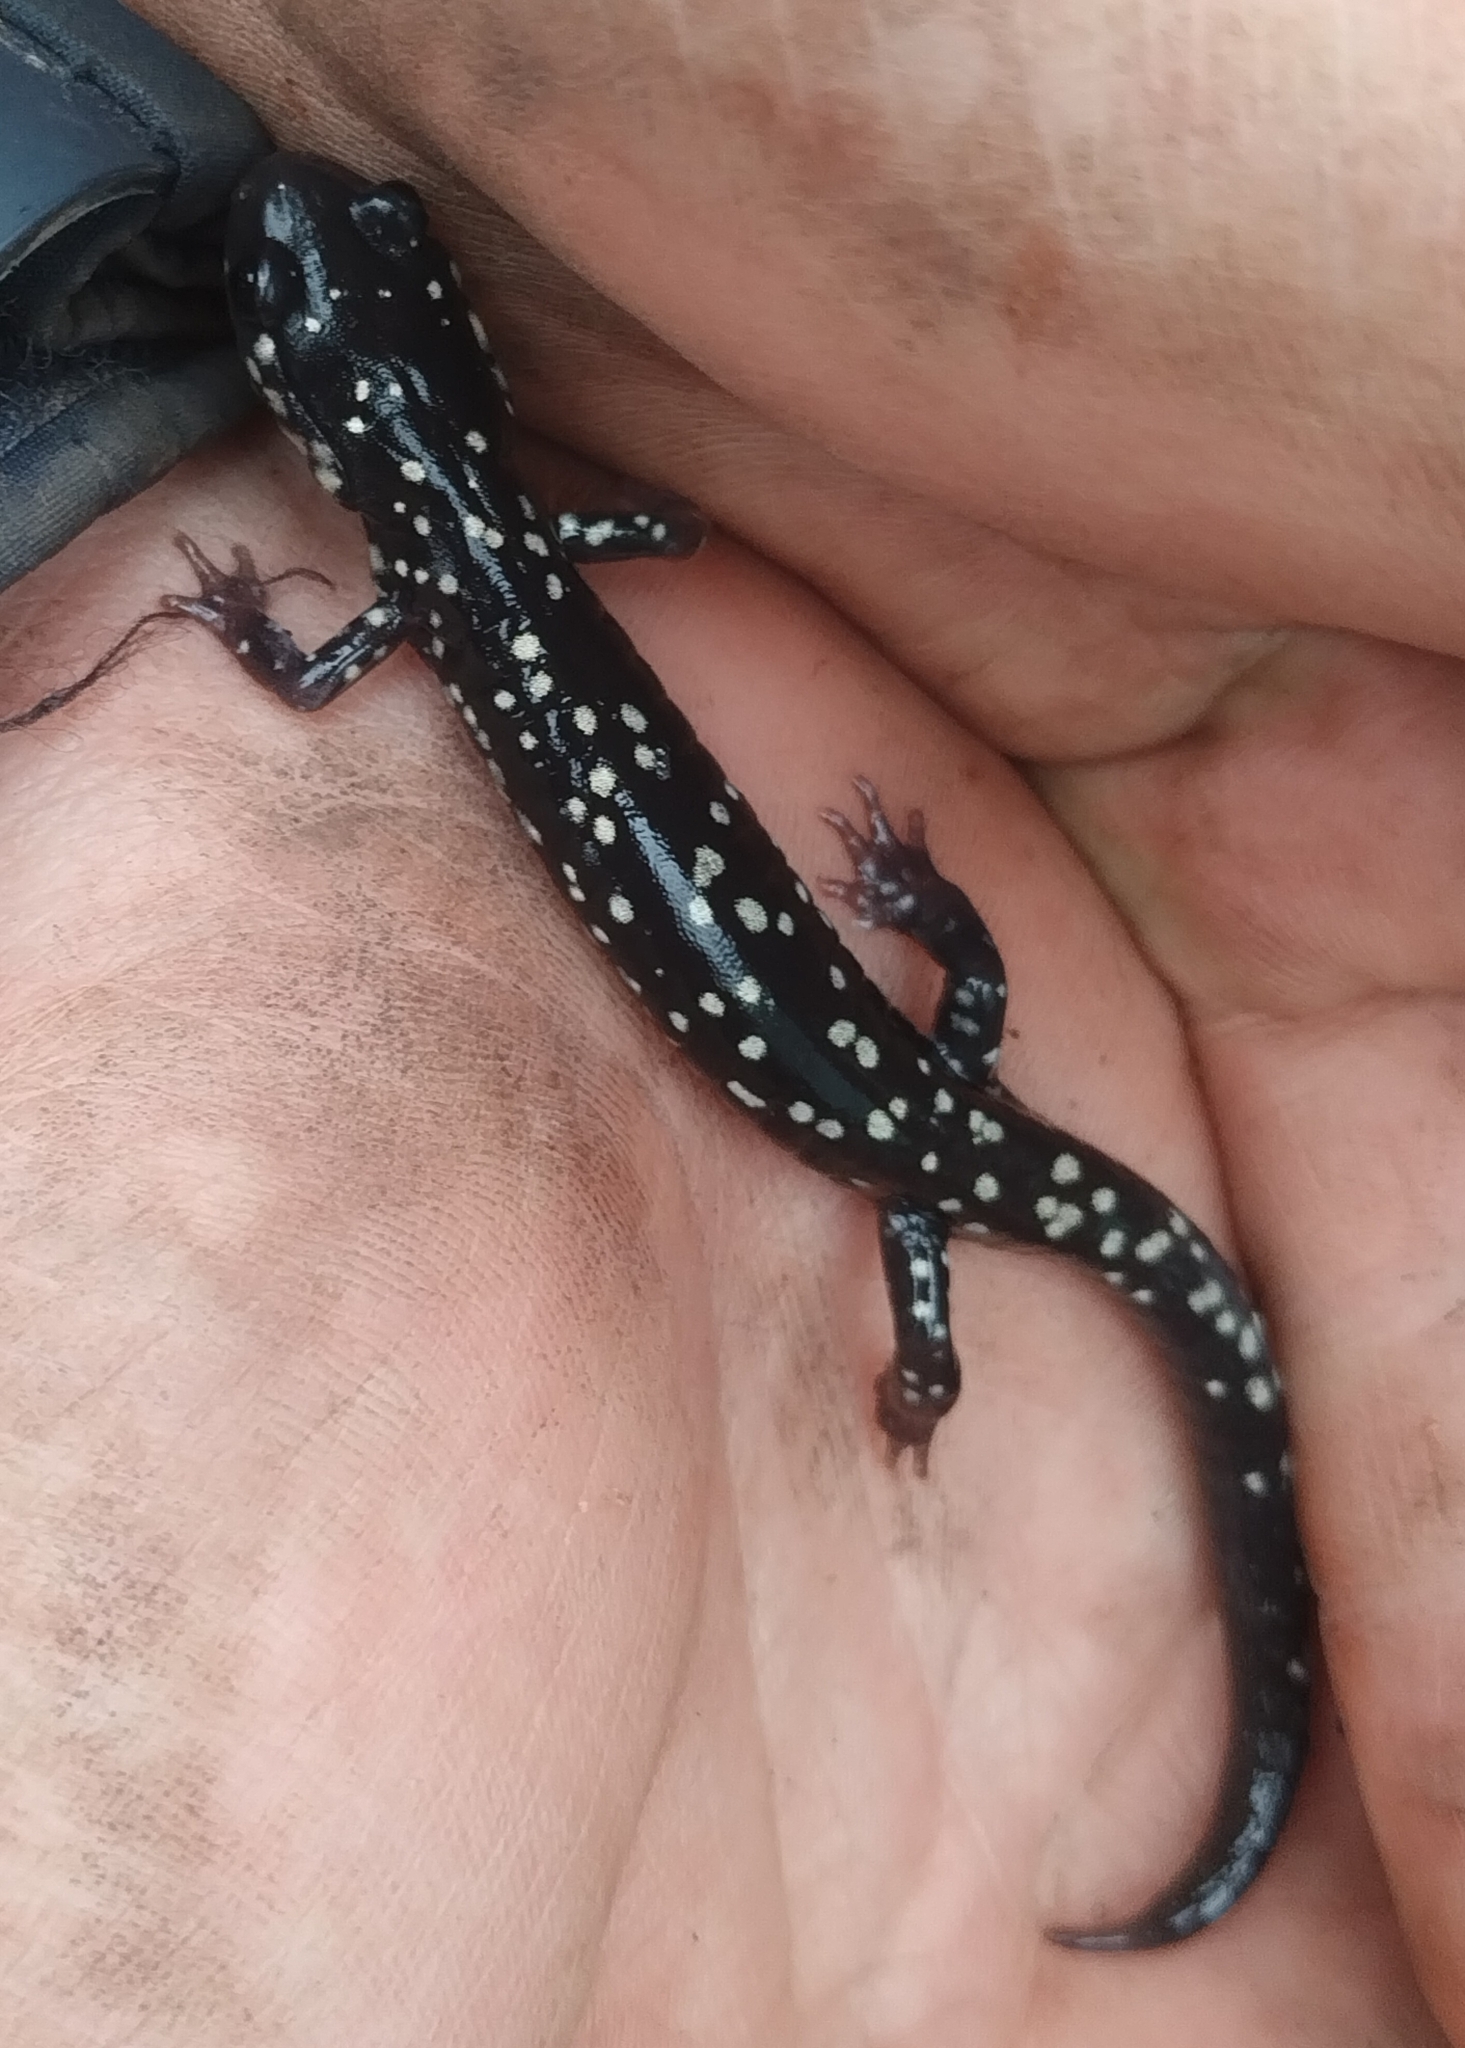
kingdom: Animalia
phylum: Chordata
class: Amphibia
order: Caudata
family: Plethodontidae
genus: Plethodon
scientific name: Plethodon glutinosus
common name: Northern slimy salamander
